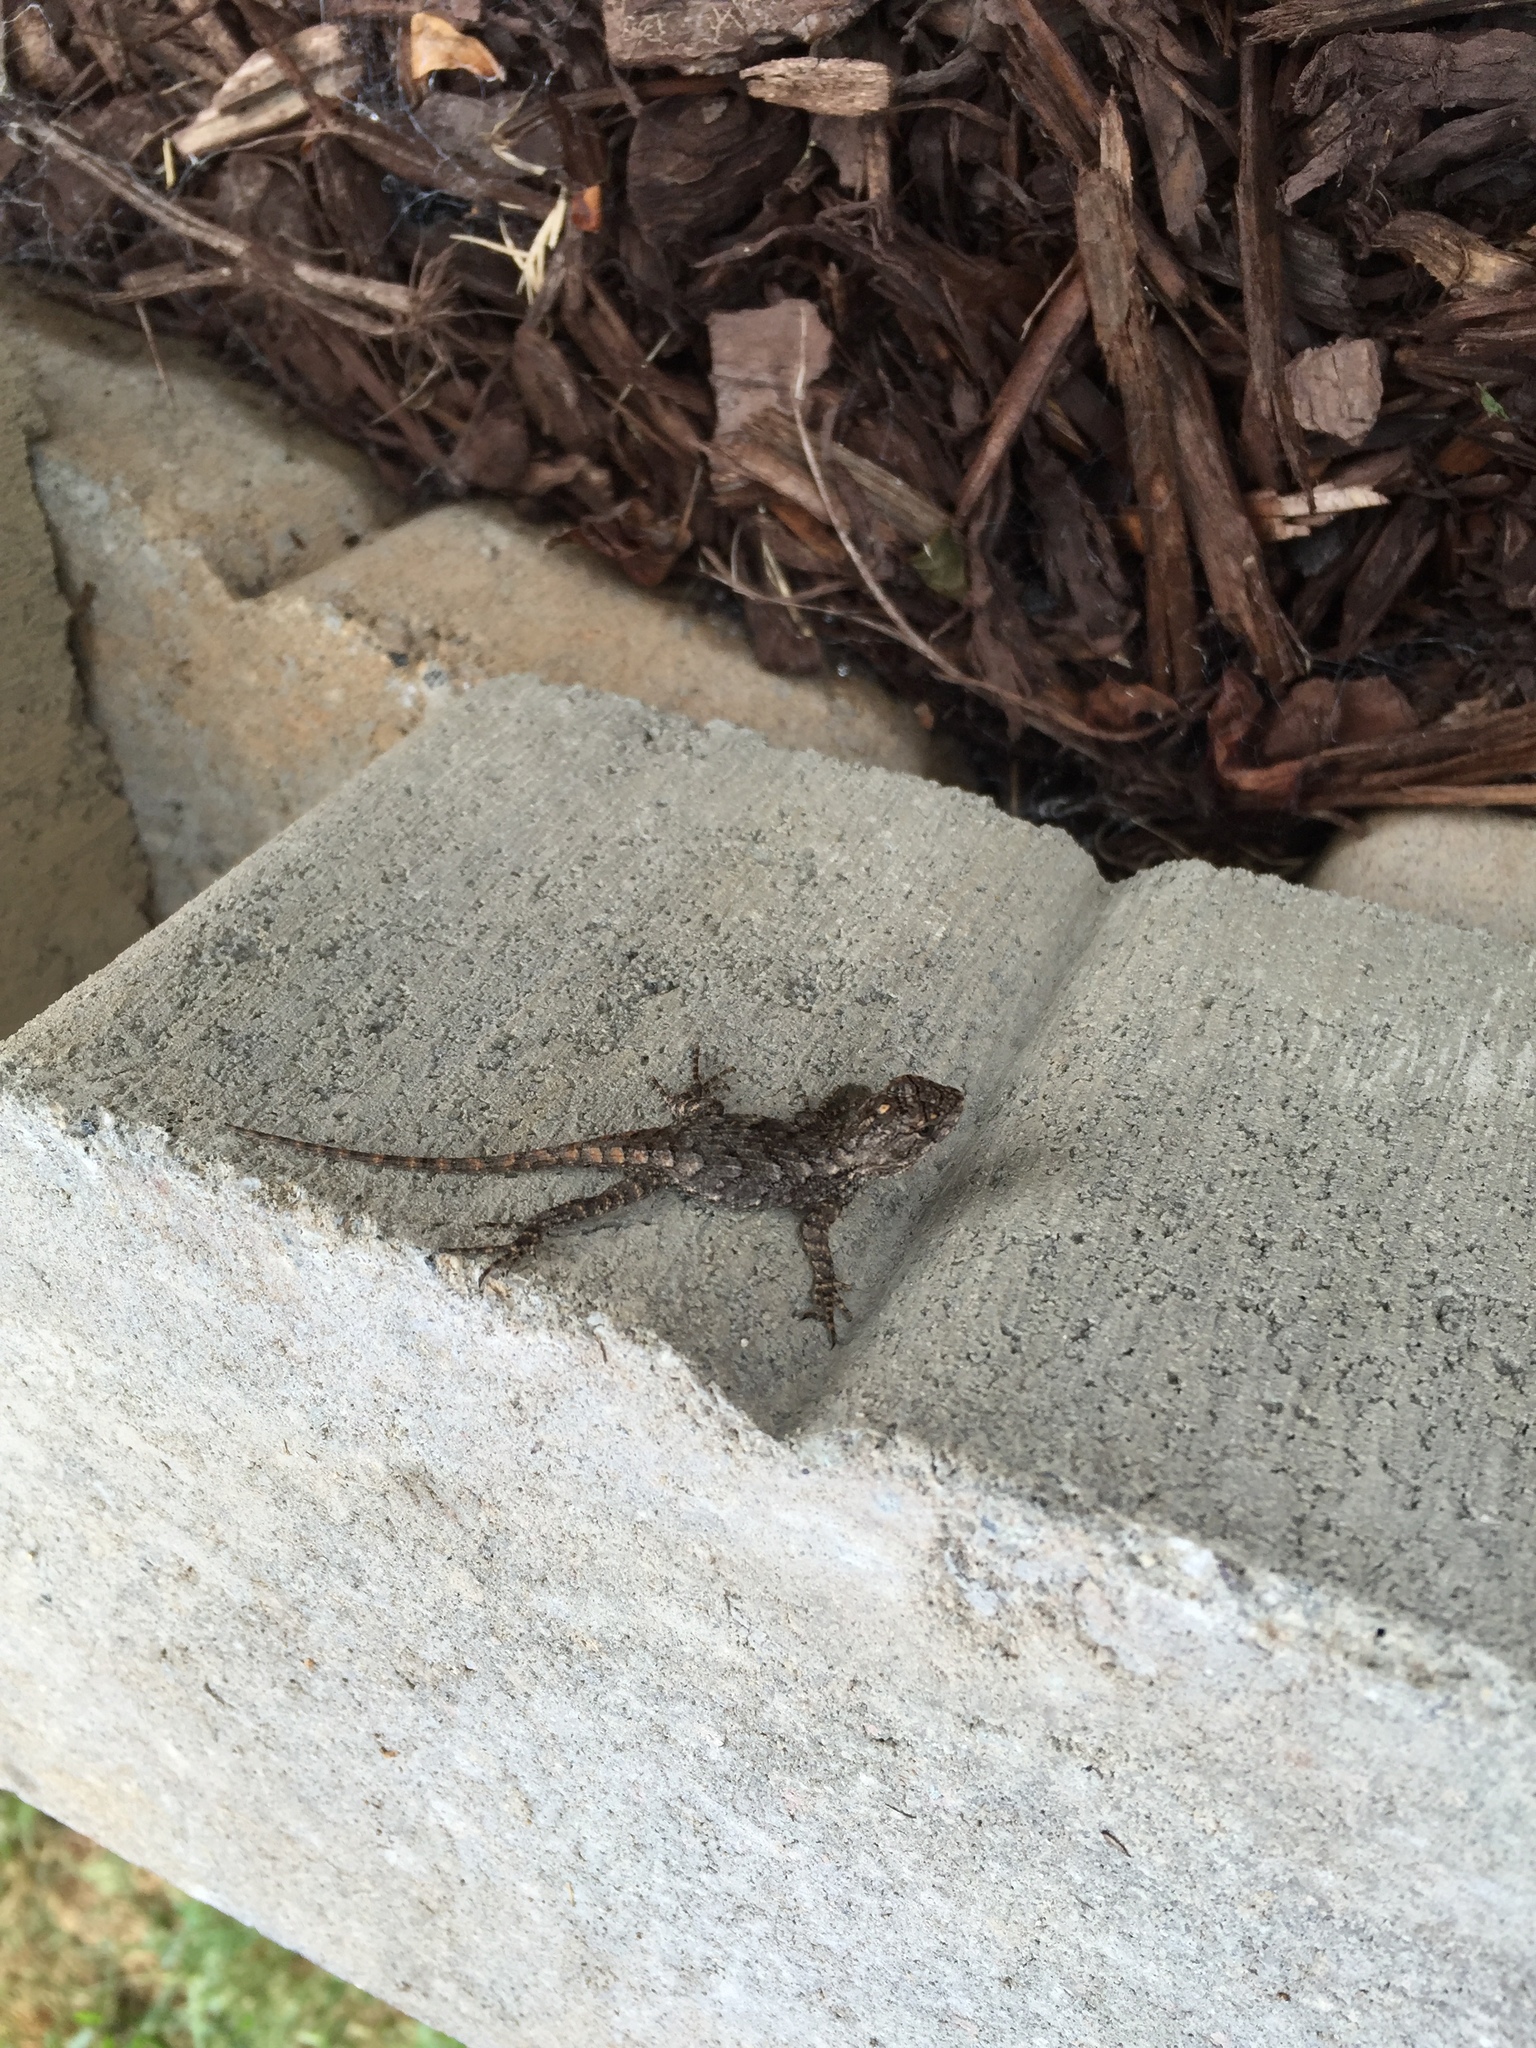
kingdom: Animalia
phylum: Chordata
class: Squamata
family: Phrynosomatidae
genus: Sceloporus
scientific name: Sceloporus undulatus
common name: Eastern fence lizard
